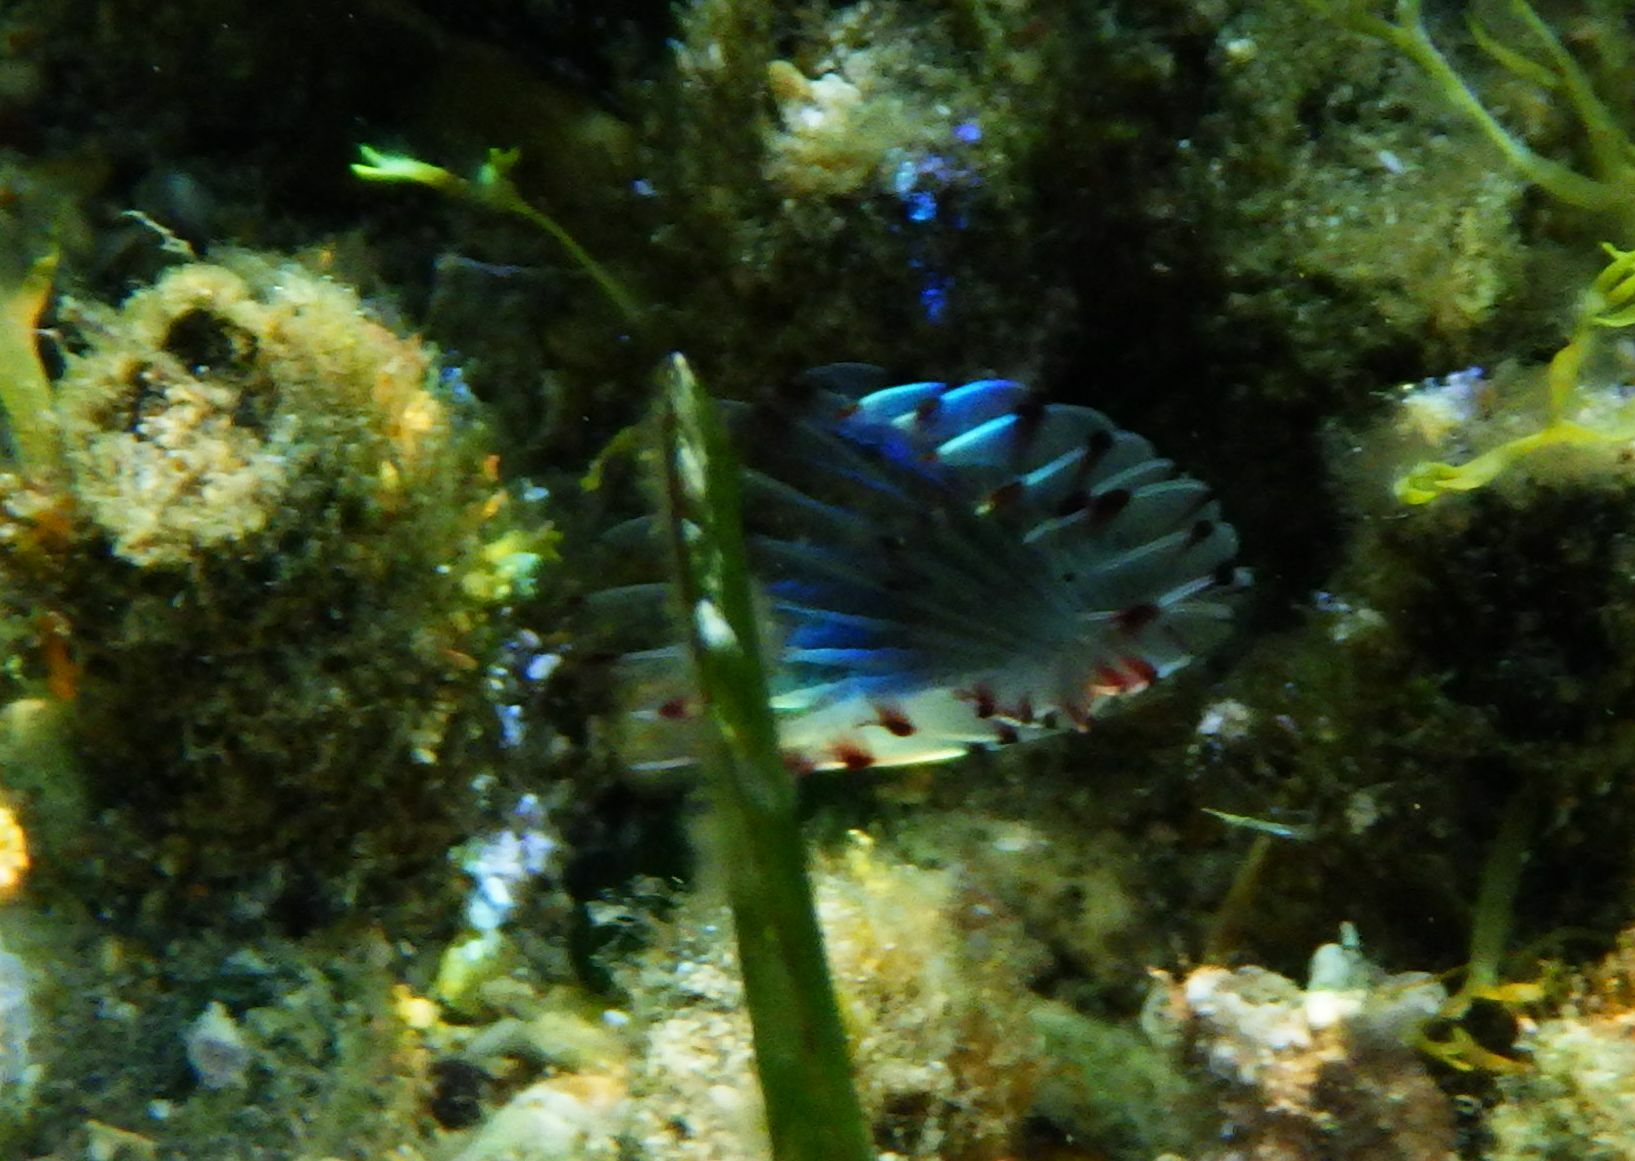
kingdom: Animalia
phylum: Annelida
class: Polychaeta
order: Sabellida
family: Sabellidae
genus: Bispira
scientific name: Bispira viola
